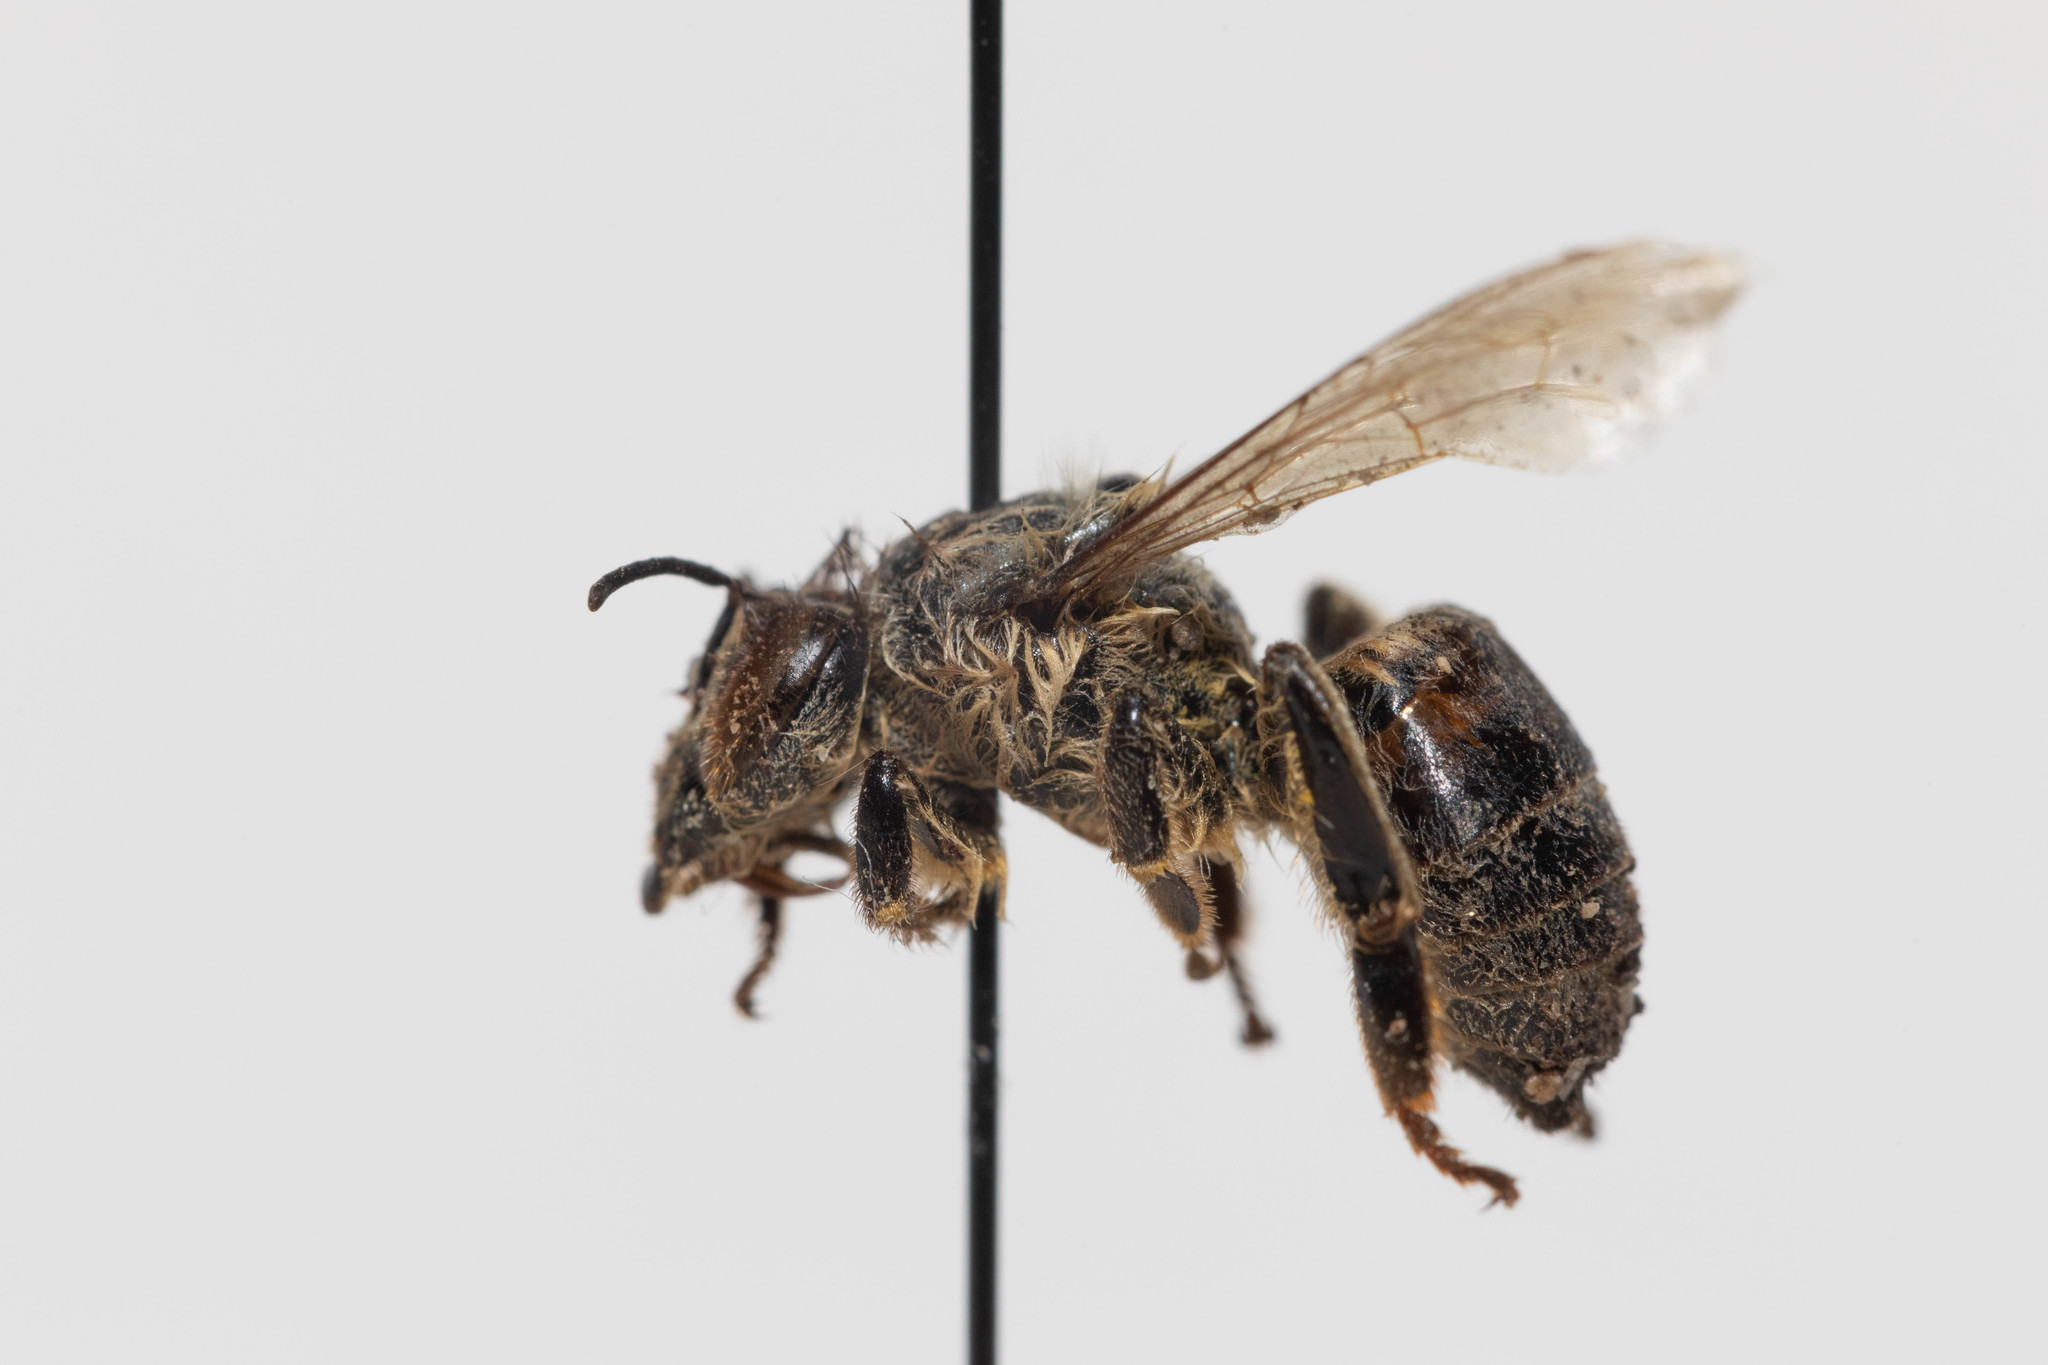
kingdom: Animalia
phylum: Arthropoda
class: Insecta
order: Hymenoptera
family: Apidae
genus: Apis
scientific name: Apis mellifera
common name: Honey bee
